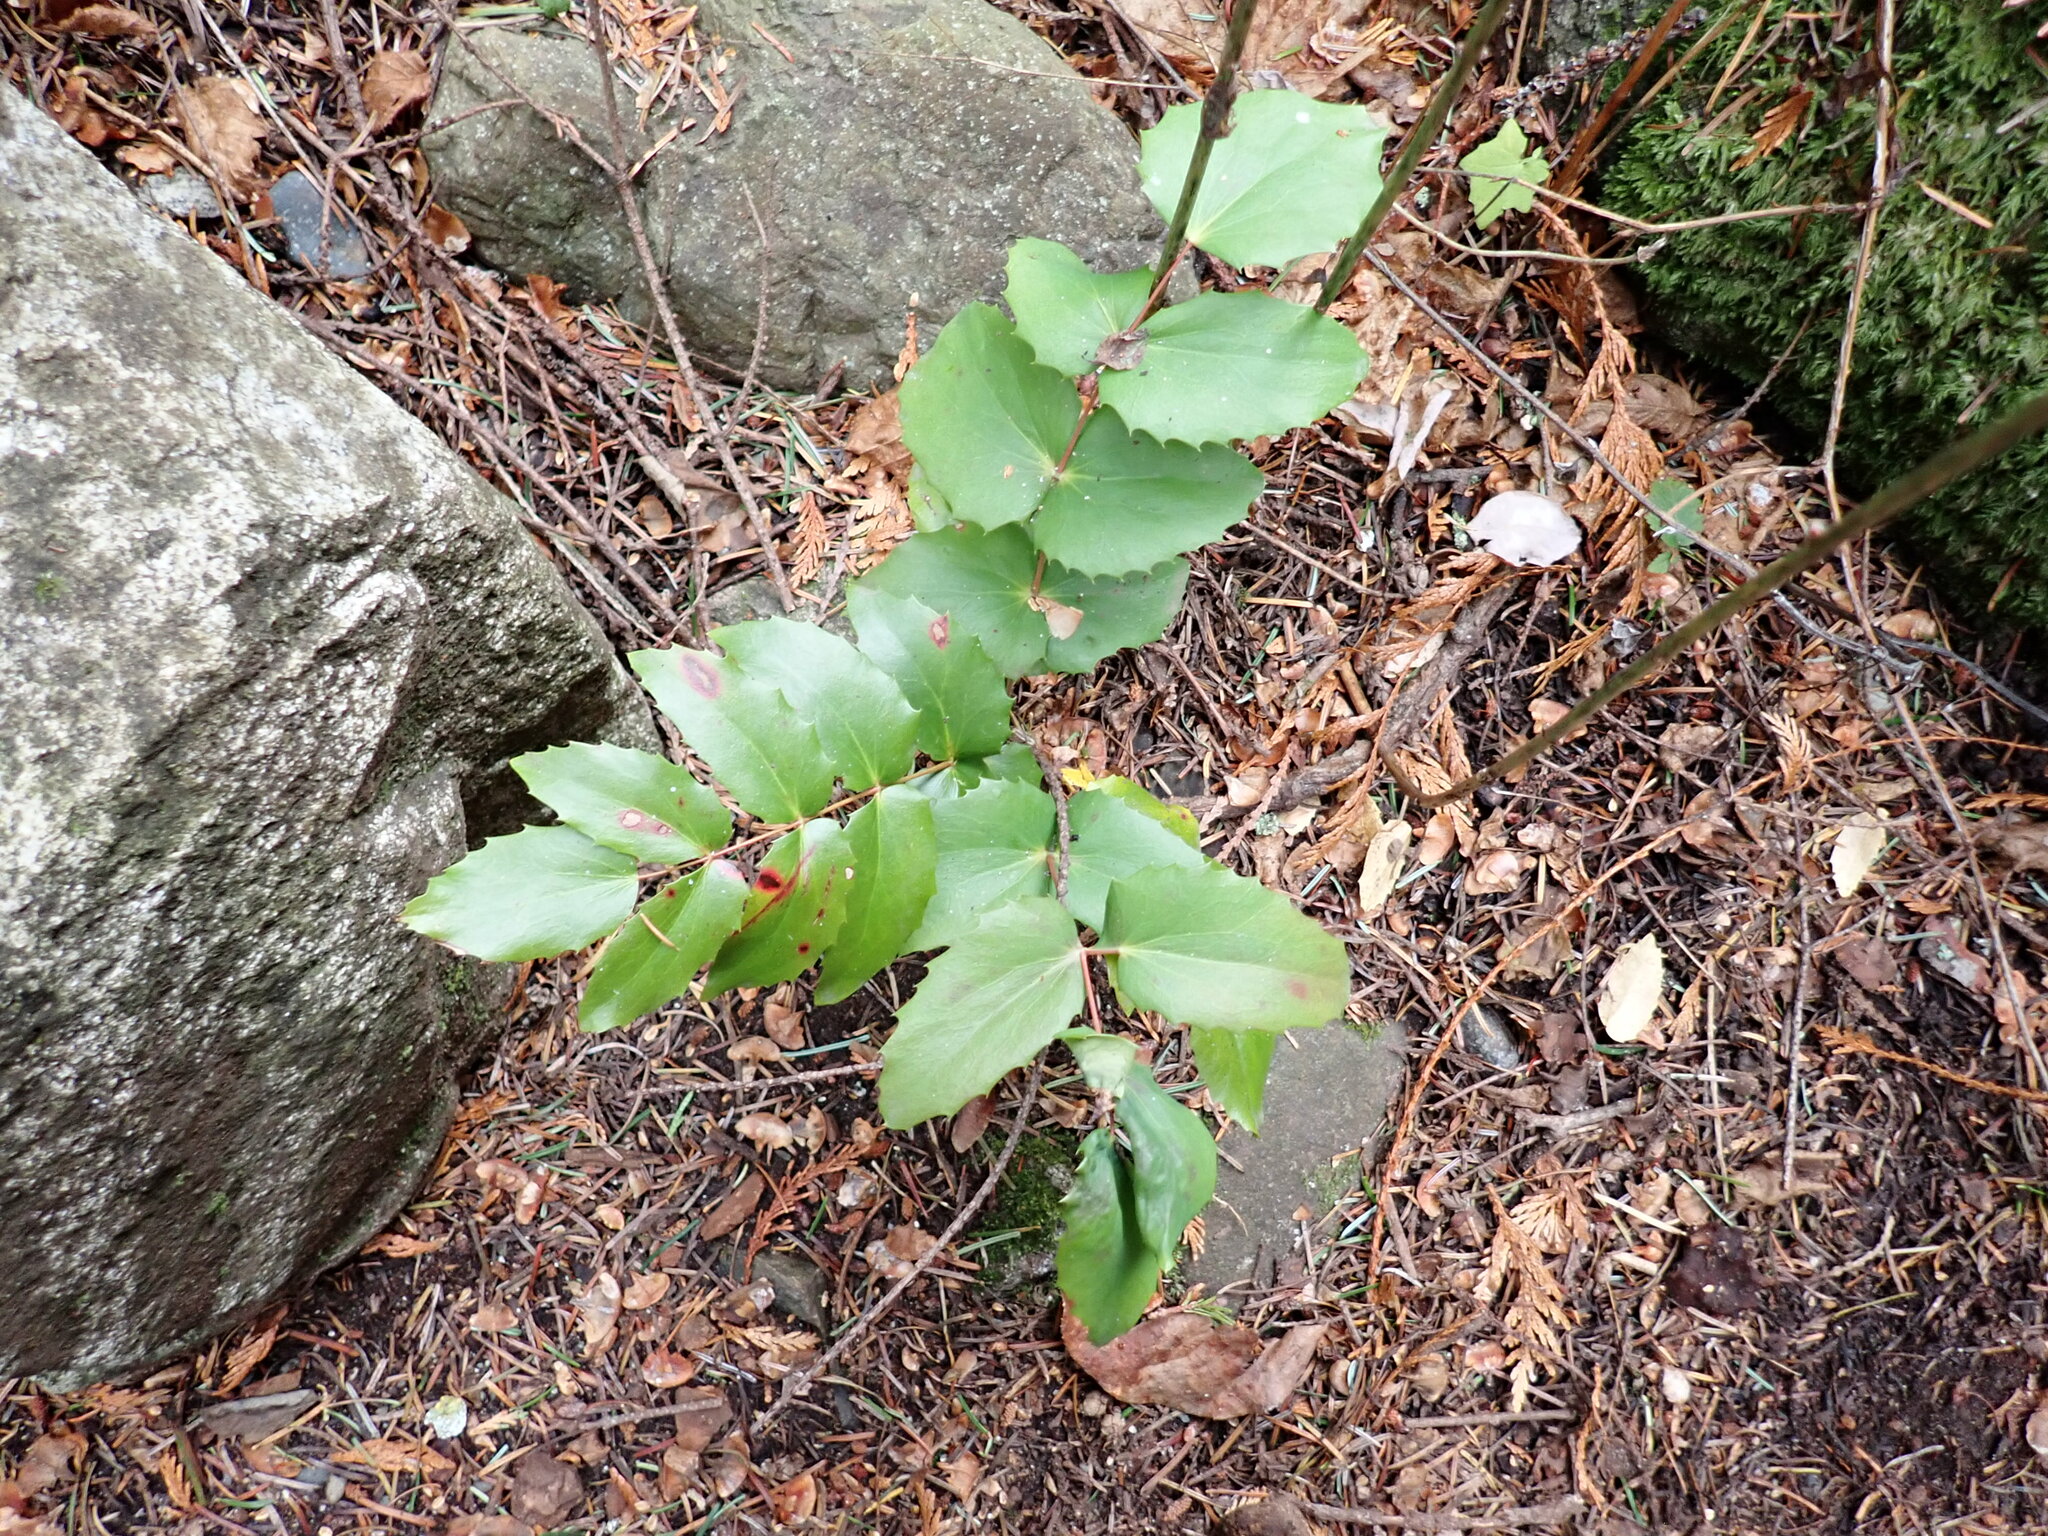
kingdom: Plantae
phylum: Tracheophyta
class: Magnoliopsida
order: Ranunculales
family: Berberidaceae
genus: Mahonia
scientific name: Mahonia nervosa
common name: Cascade oregon-grape
